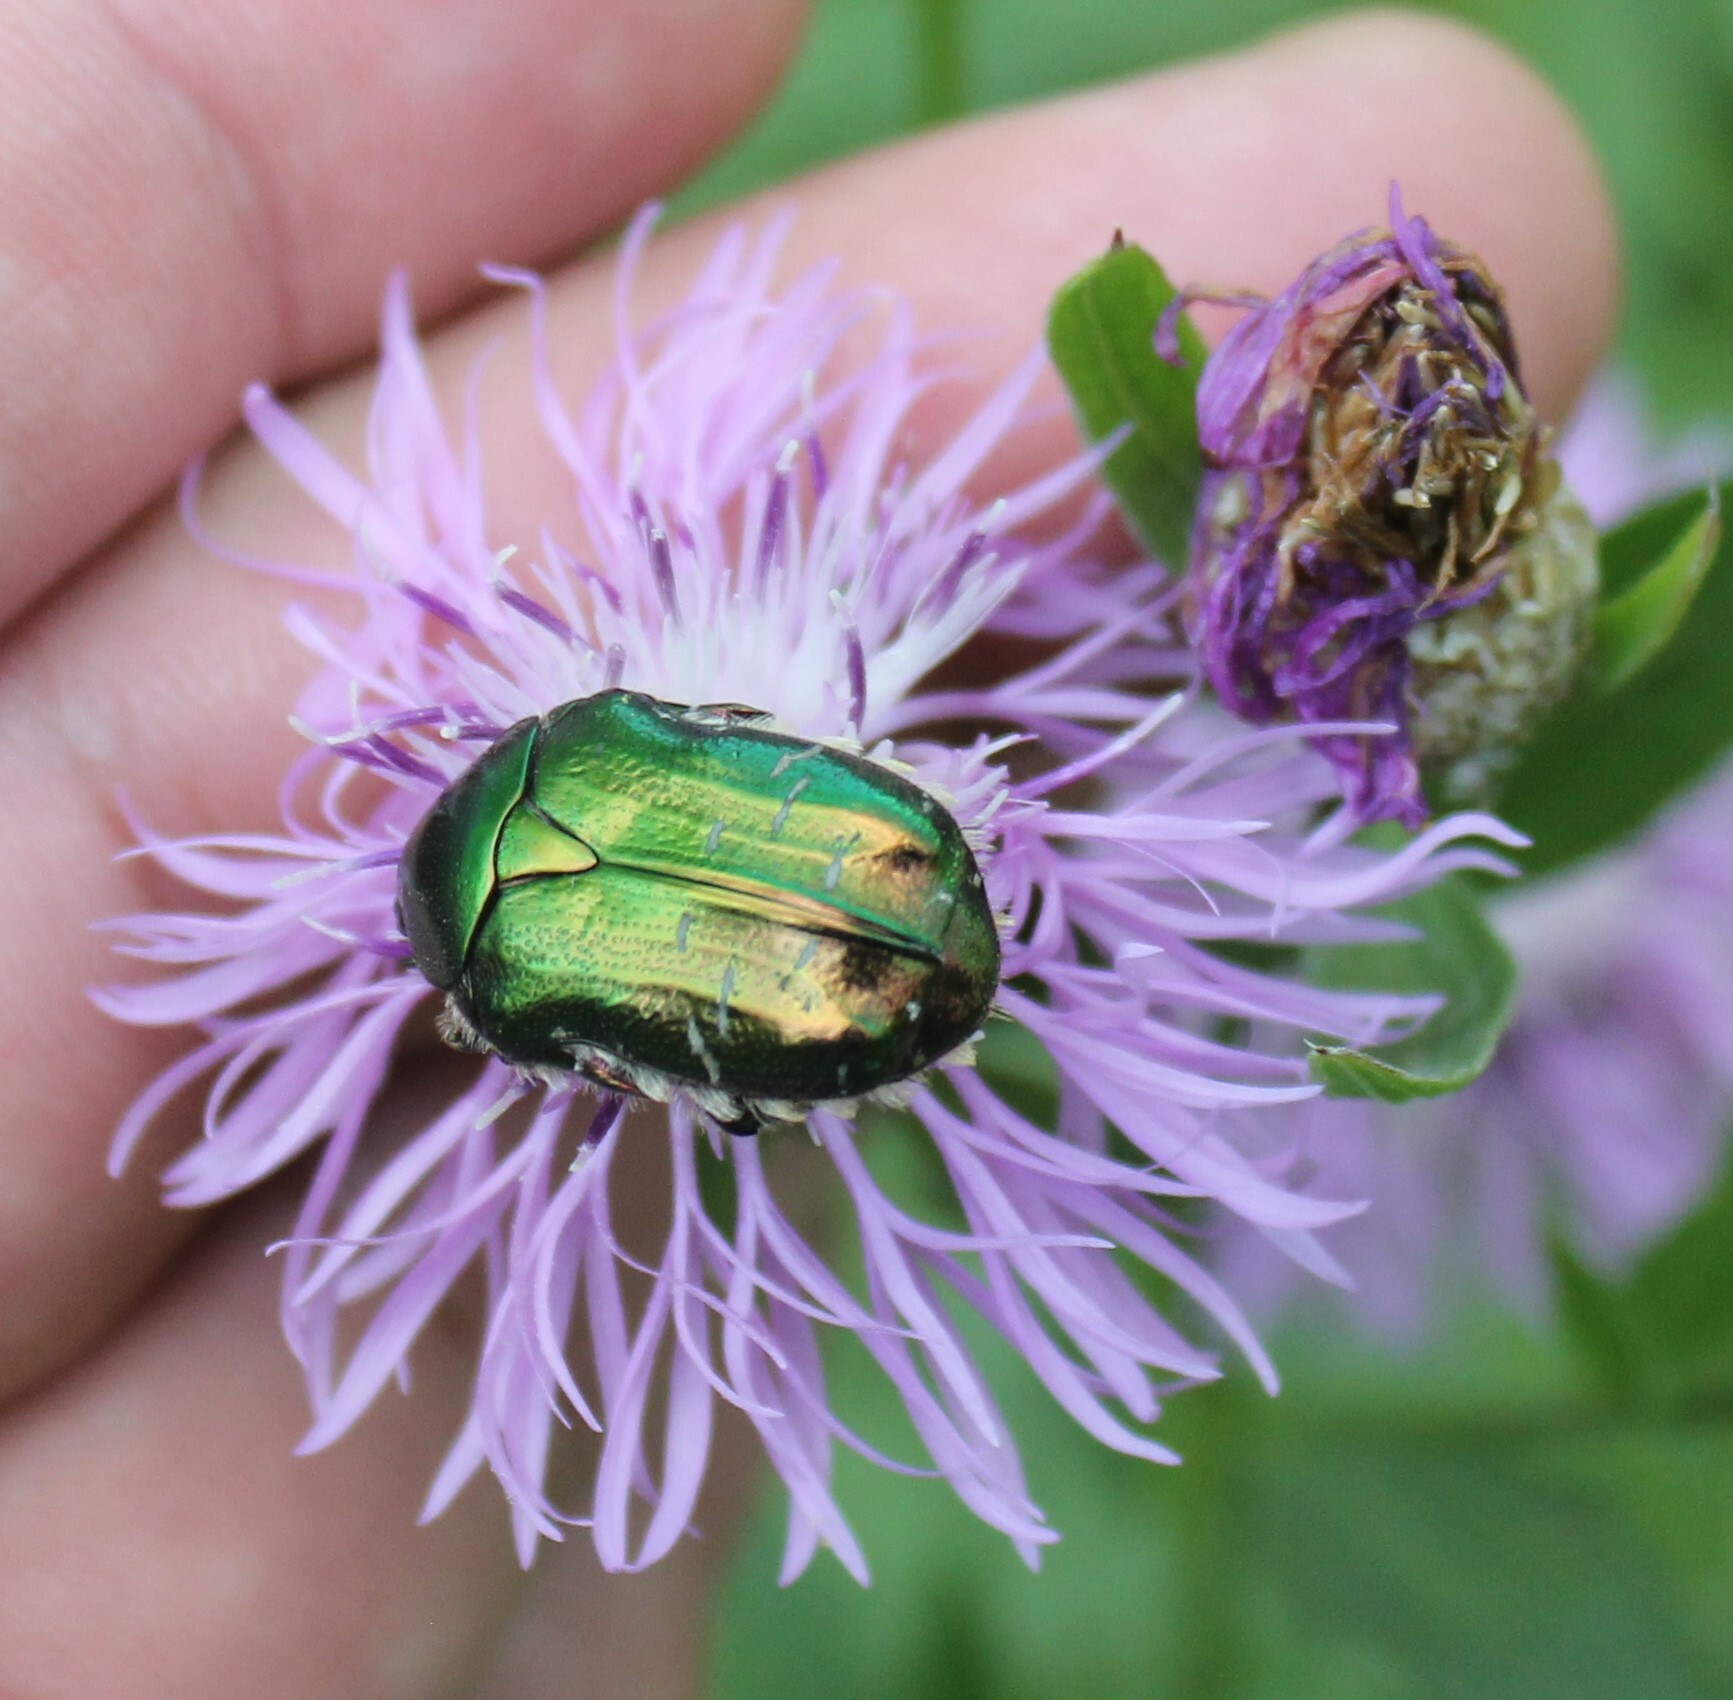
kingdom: Animalia
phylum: Arthropoda
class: Insecta
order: Coleoptera
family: Scarabaeidae
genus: Cetonia
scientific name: Cetonia aurata
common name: Rose chafer
